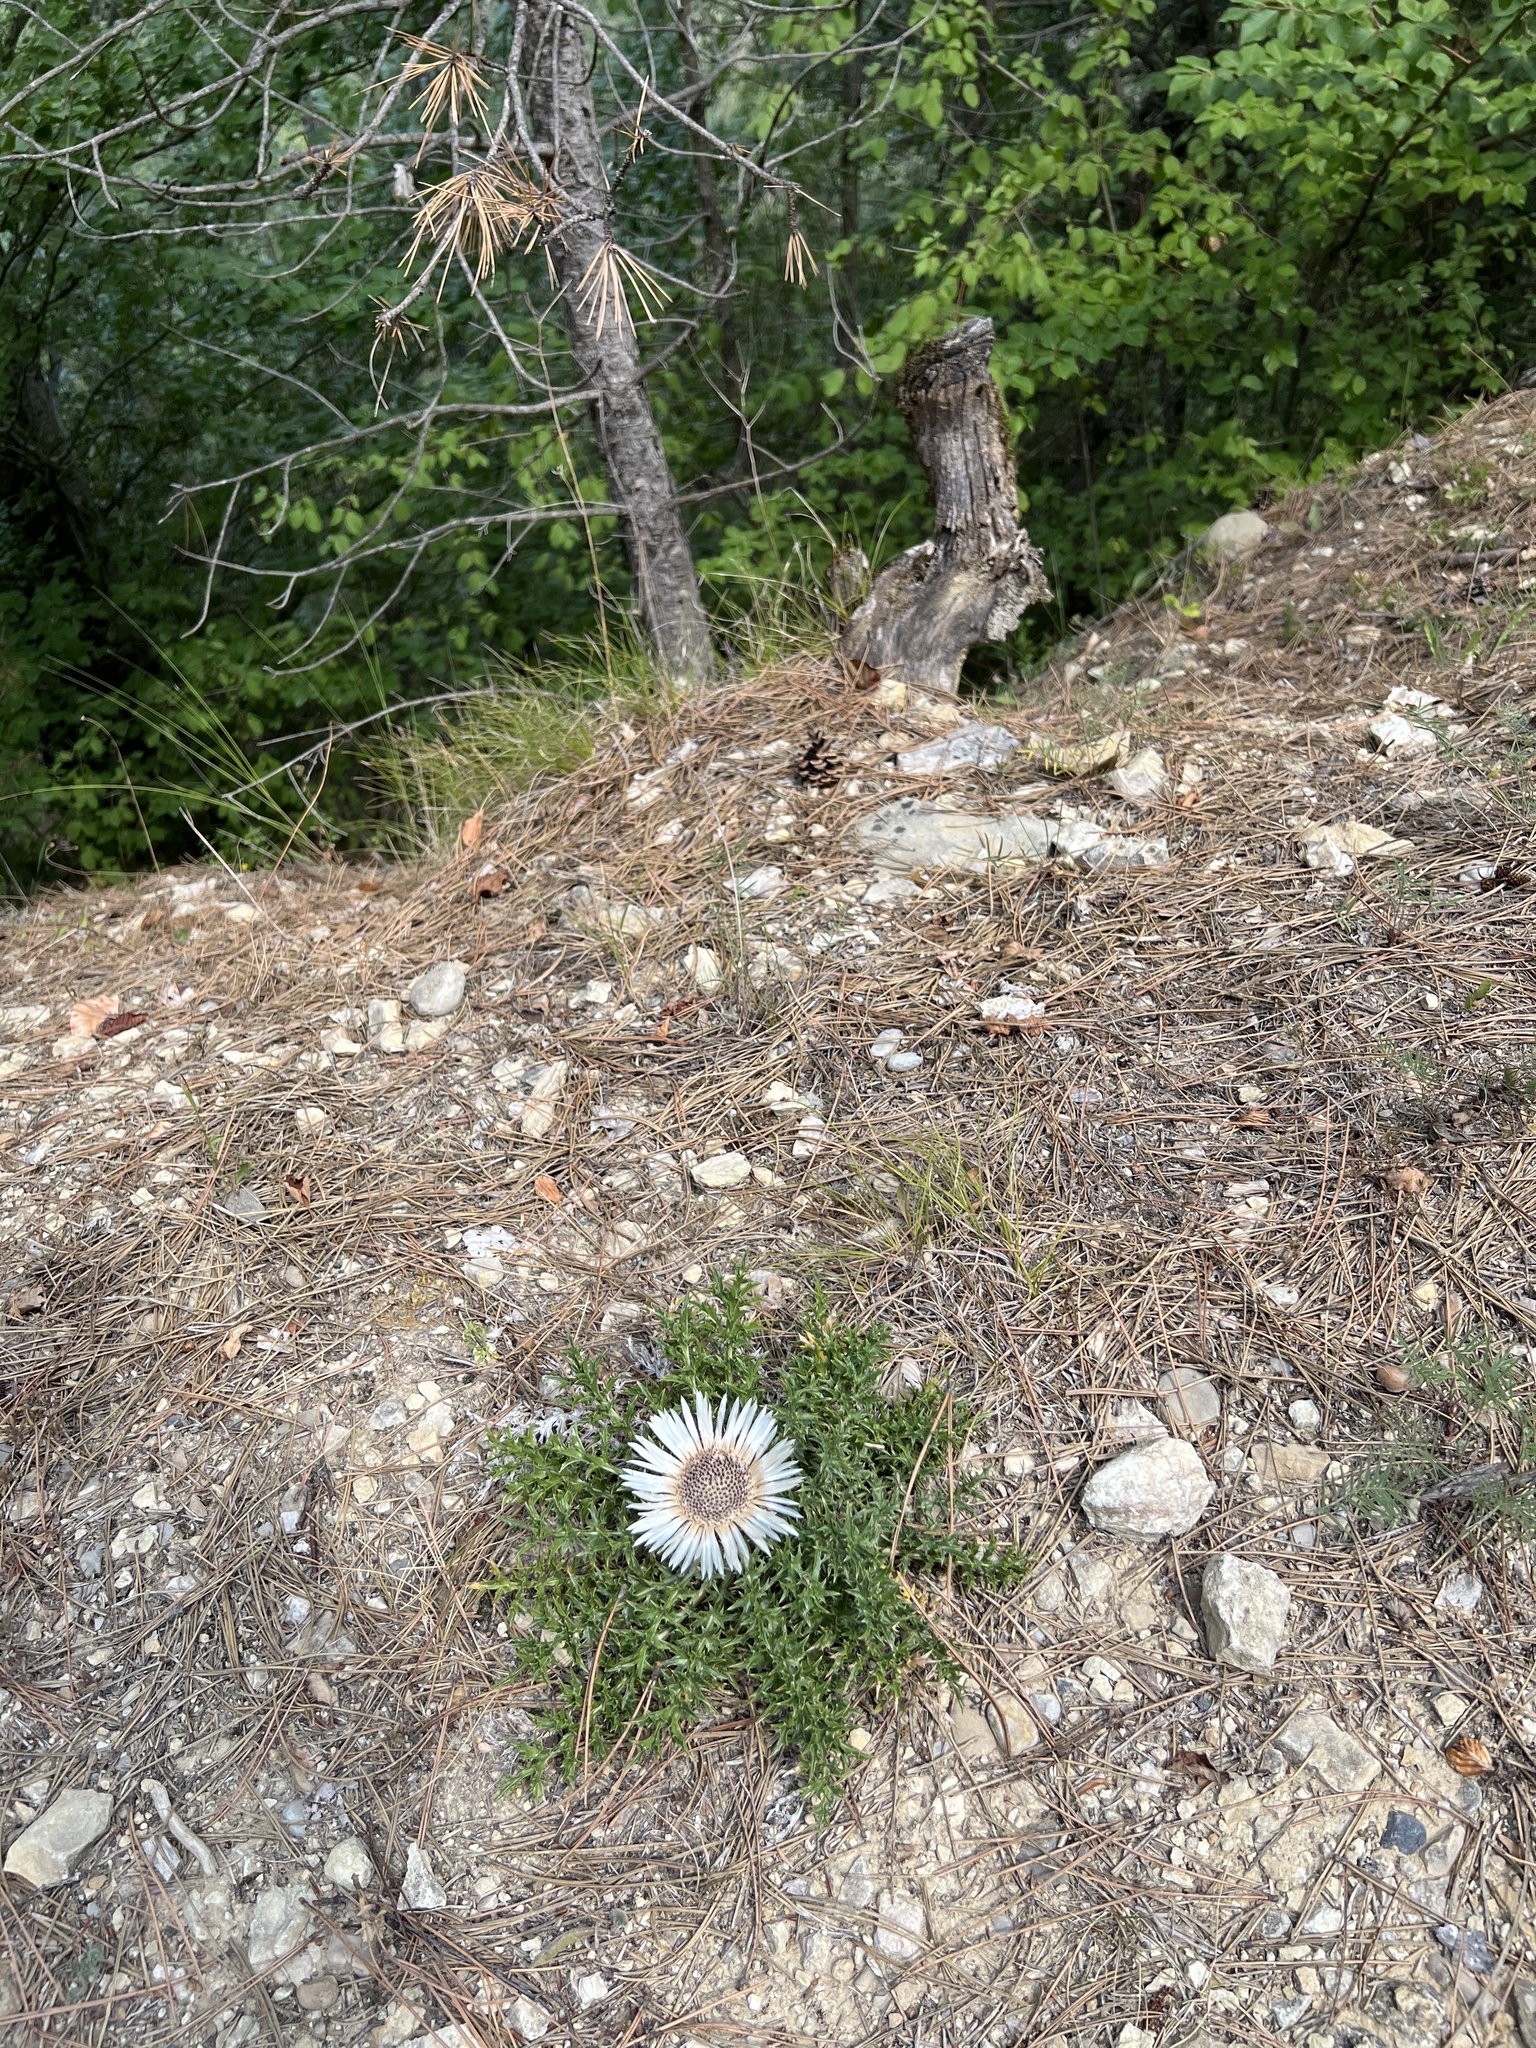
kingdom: Plantae
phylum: Tracheophyta
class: Magnoliopsida
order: Asterales
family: Asteraceae
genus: Carlina
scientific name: Carlina acaulis
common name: Stemless carline thistle
